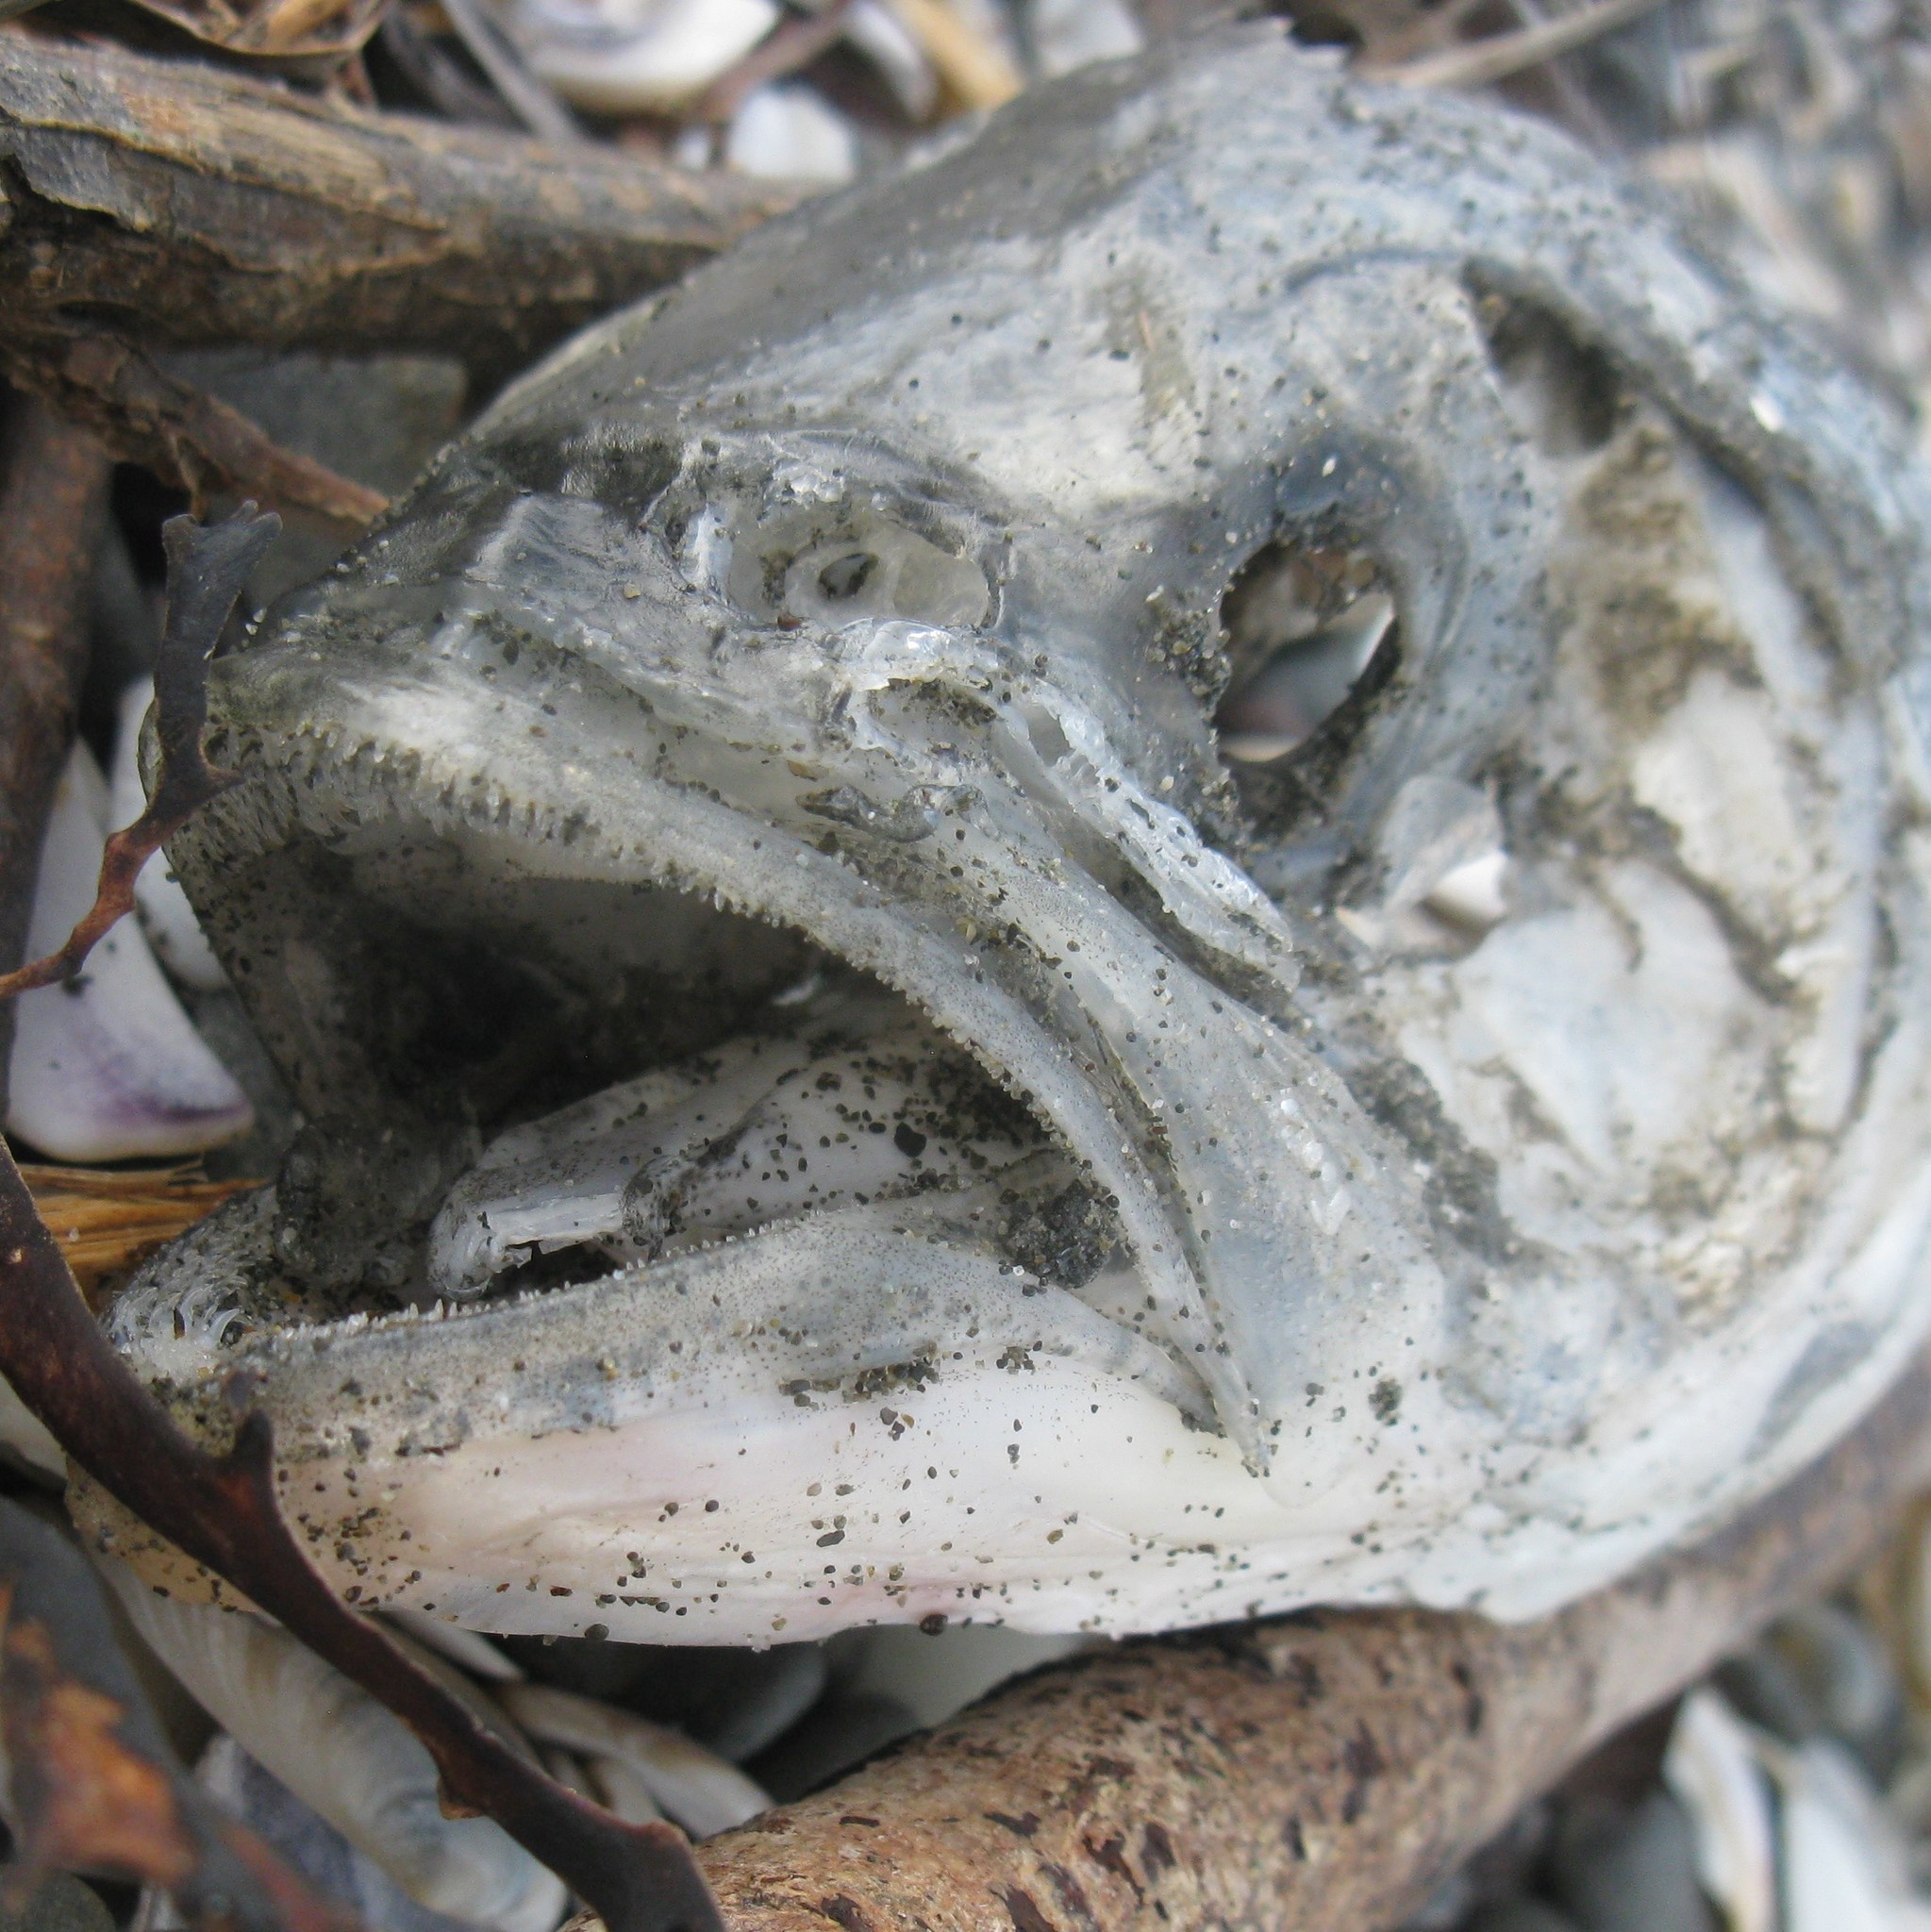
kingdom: Animalia
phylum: Chordata
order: Perciformes
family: Arripidae
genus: Arripis
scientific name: Arripis trutta
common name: Kahawai
